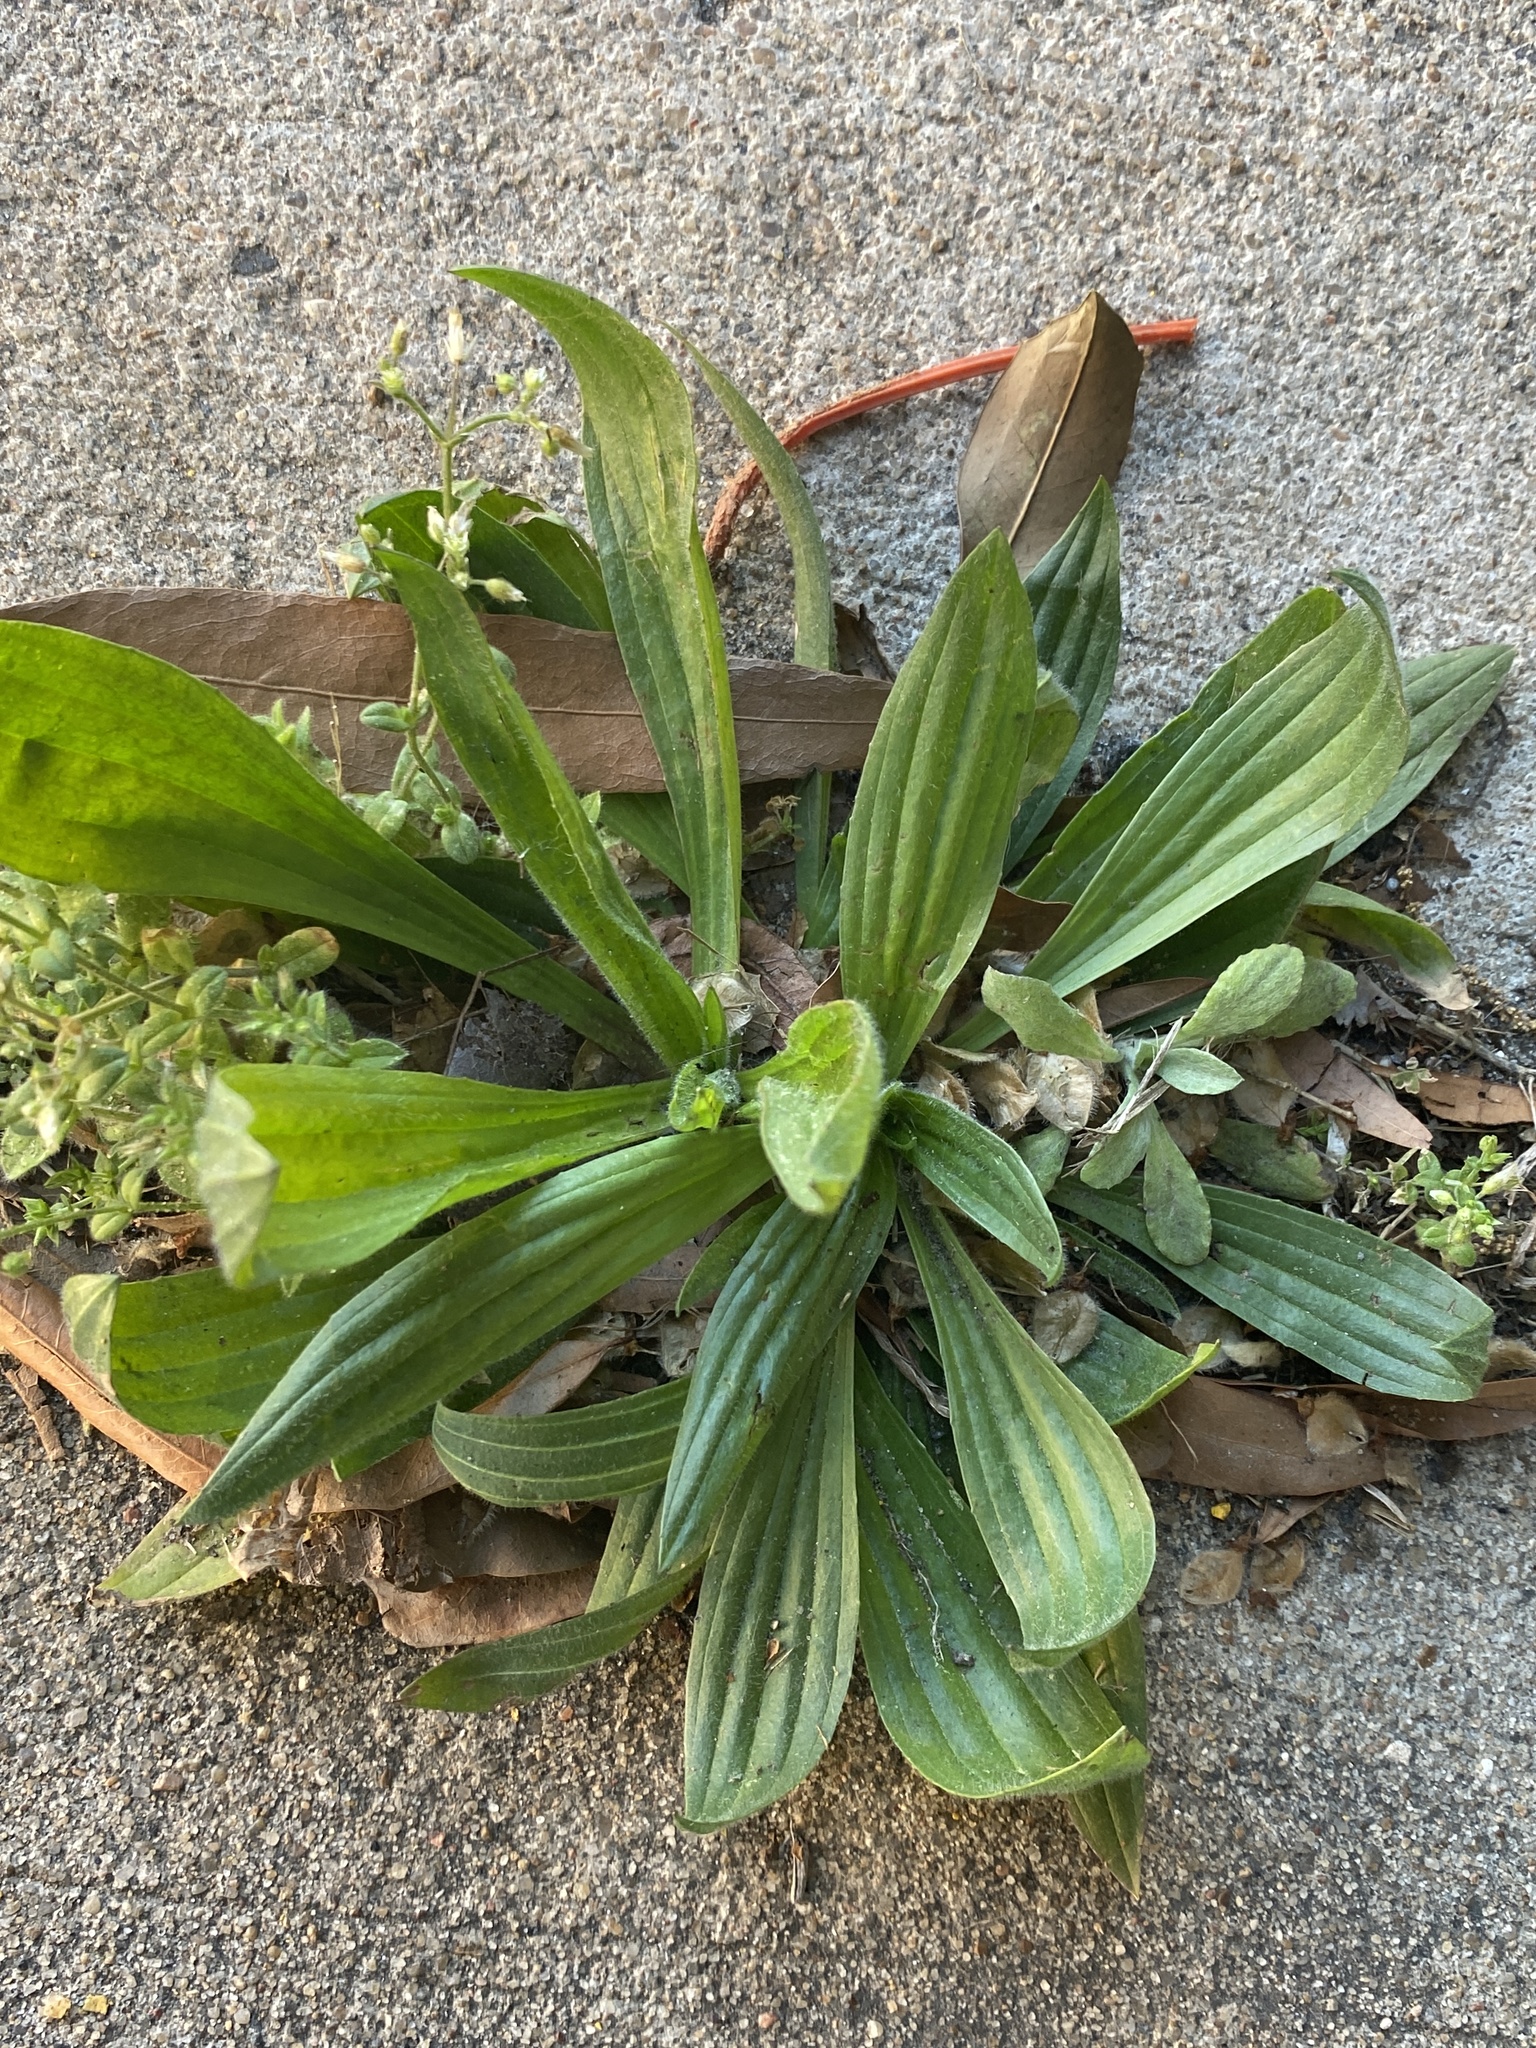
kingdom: Plantae
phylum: Tracheophyta
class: Magnoliopsida
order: Lamiales
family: Plantaginaceae
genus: Plantago
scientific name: Plantago lanceolata
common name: Ribwort plantain
